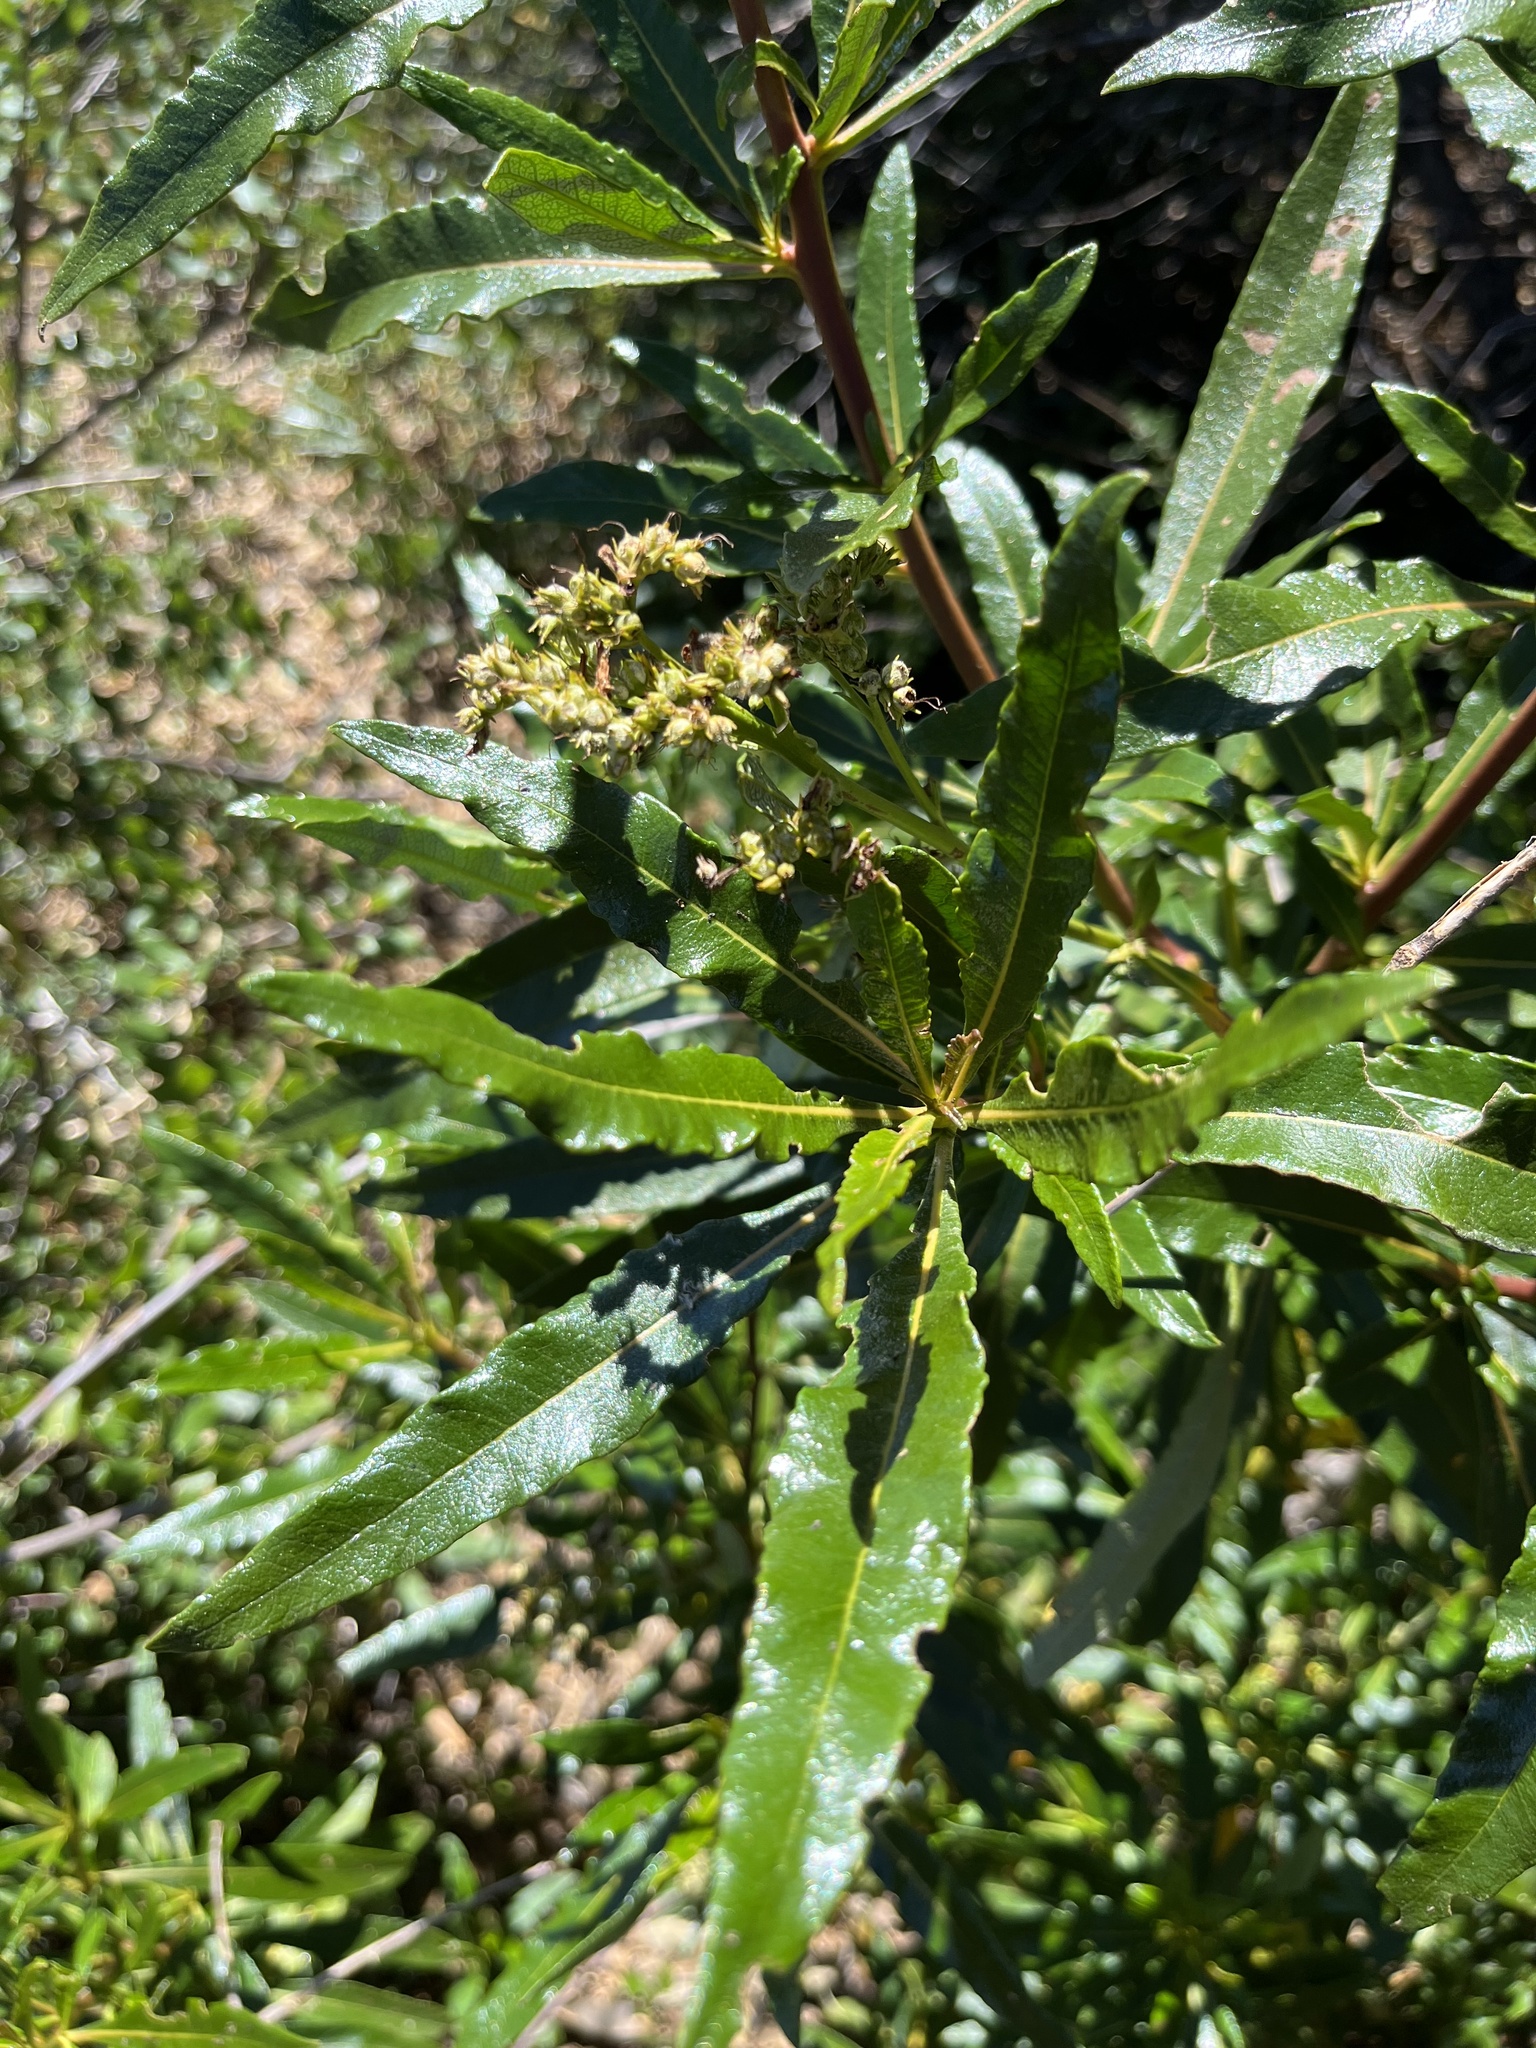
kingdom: Plantae
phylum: Tracheophyta
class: Magnoliopsida
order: Boraginales
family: Namaceae
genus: Eriodictyon
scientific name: Eriodictyon californicum
